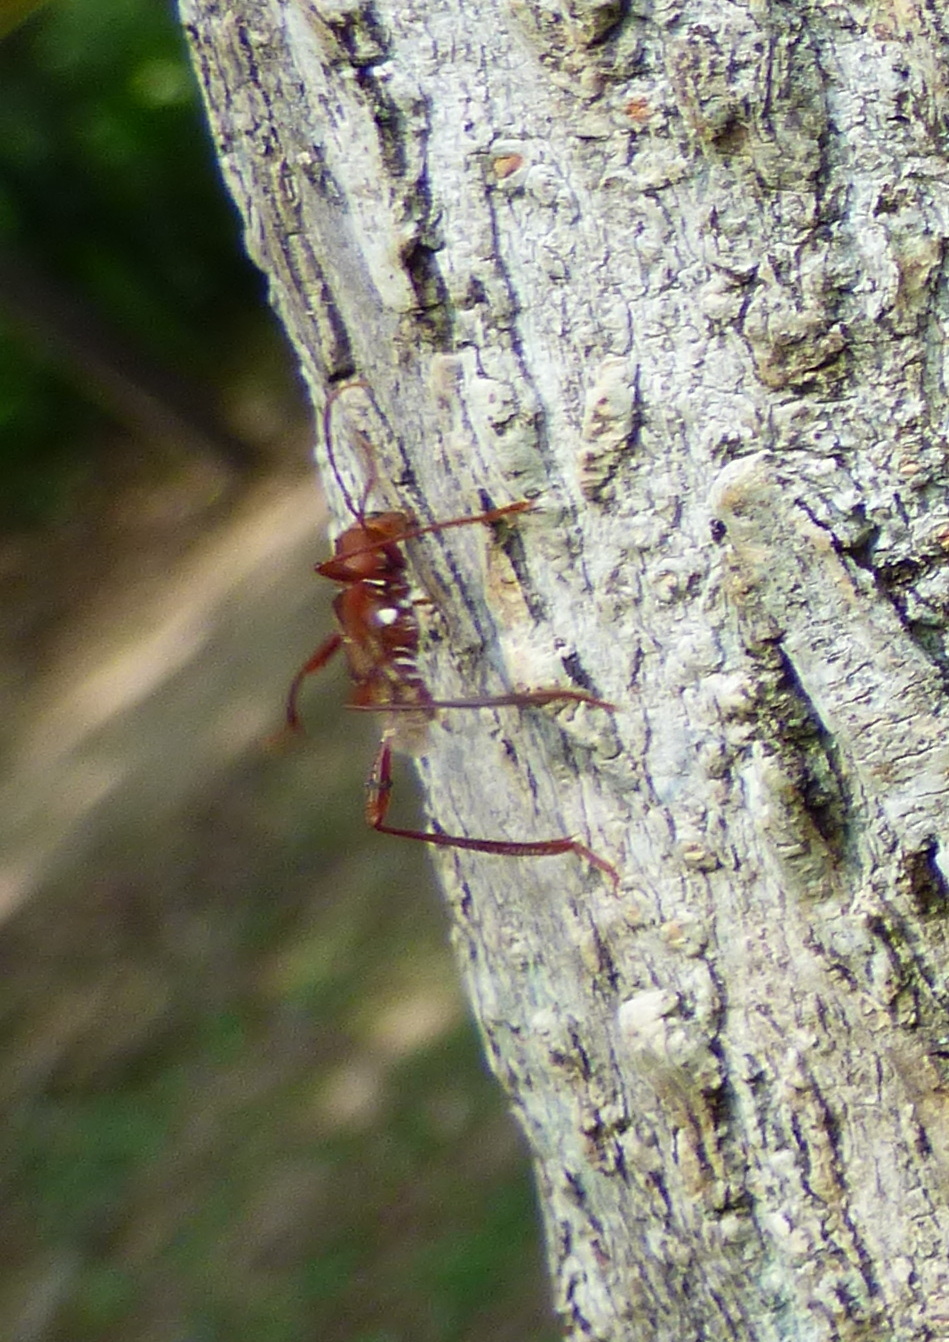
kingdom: Animalia
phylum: Arthropoda
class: Insecta
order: Coleoptera
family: Cerambycidae
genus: Neoclytus
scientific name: Neoclytus rufus
